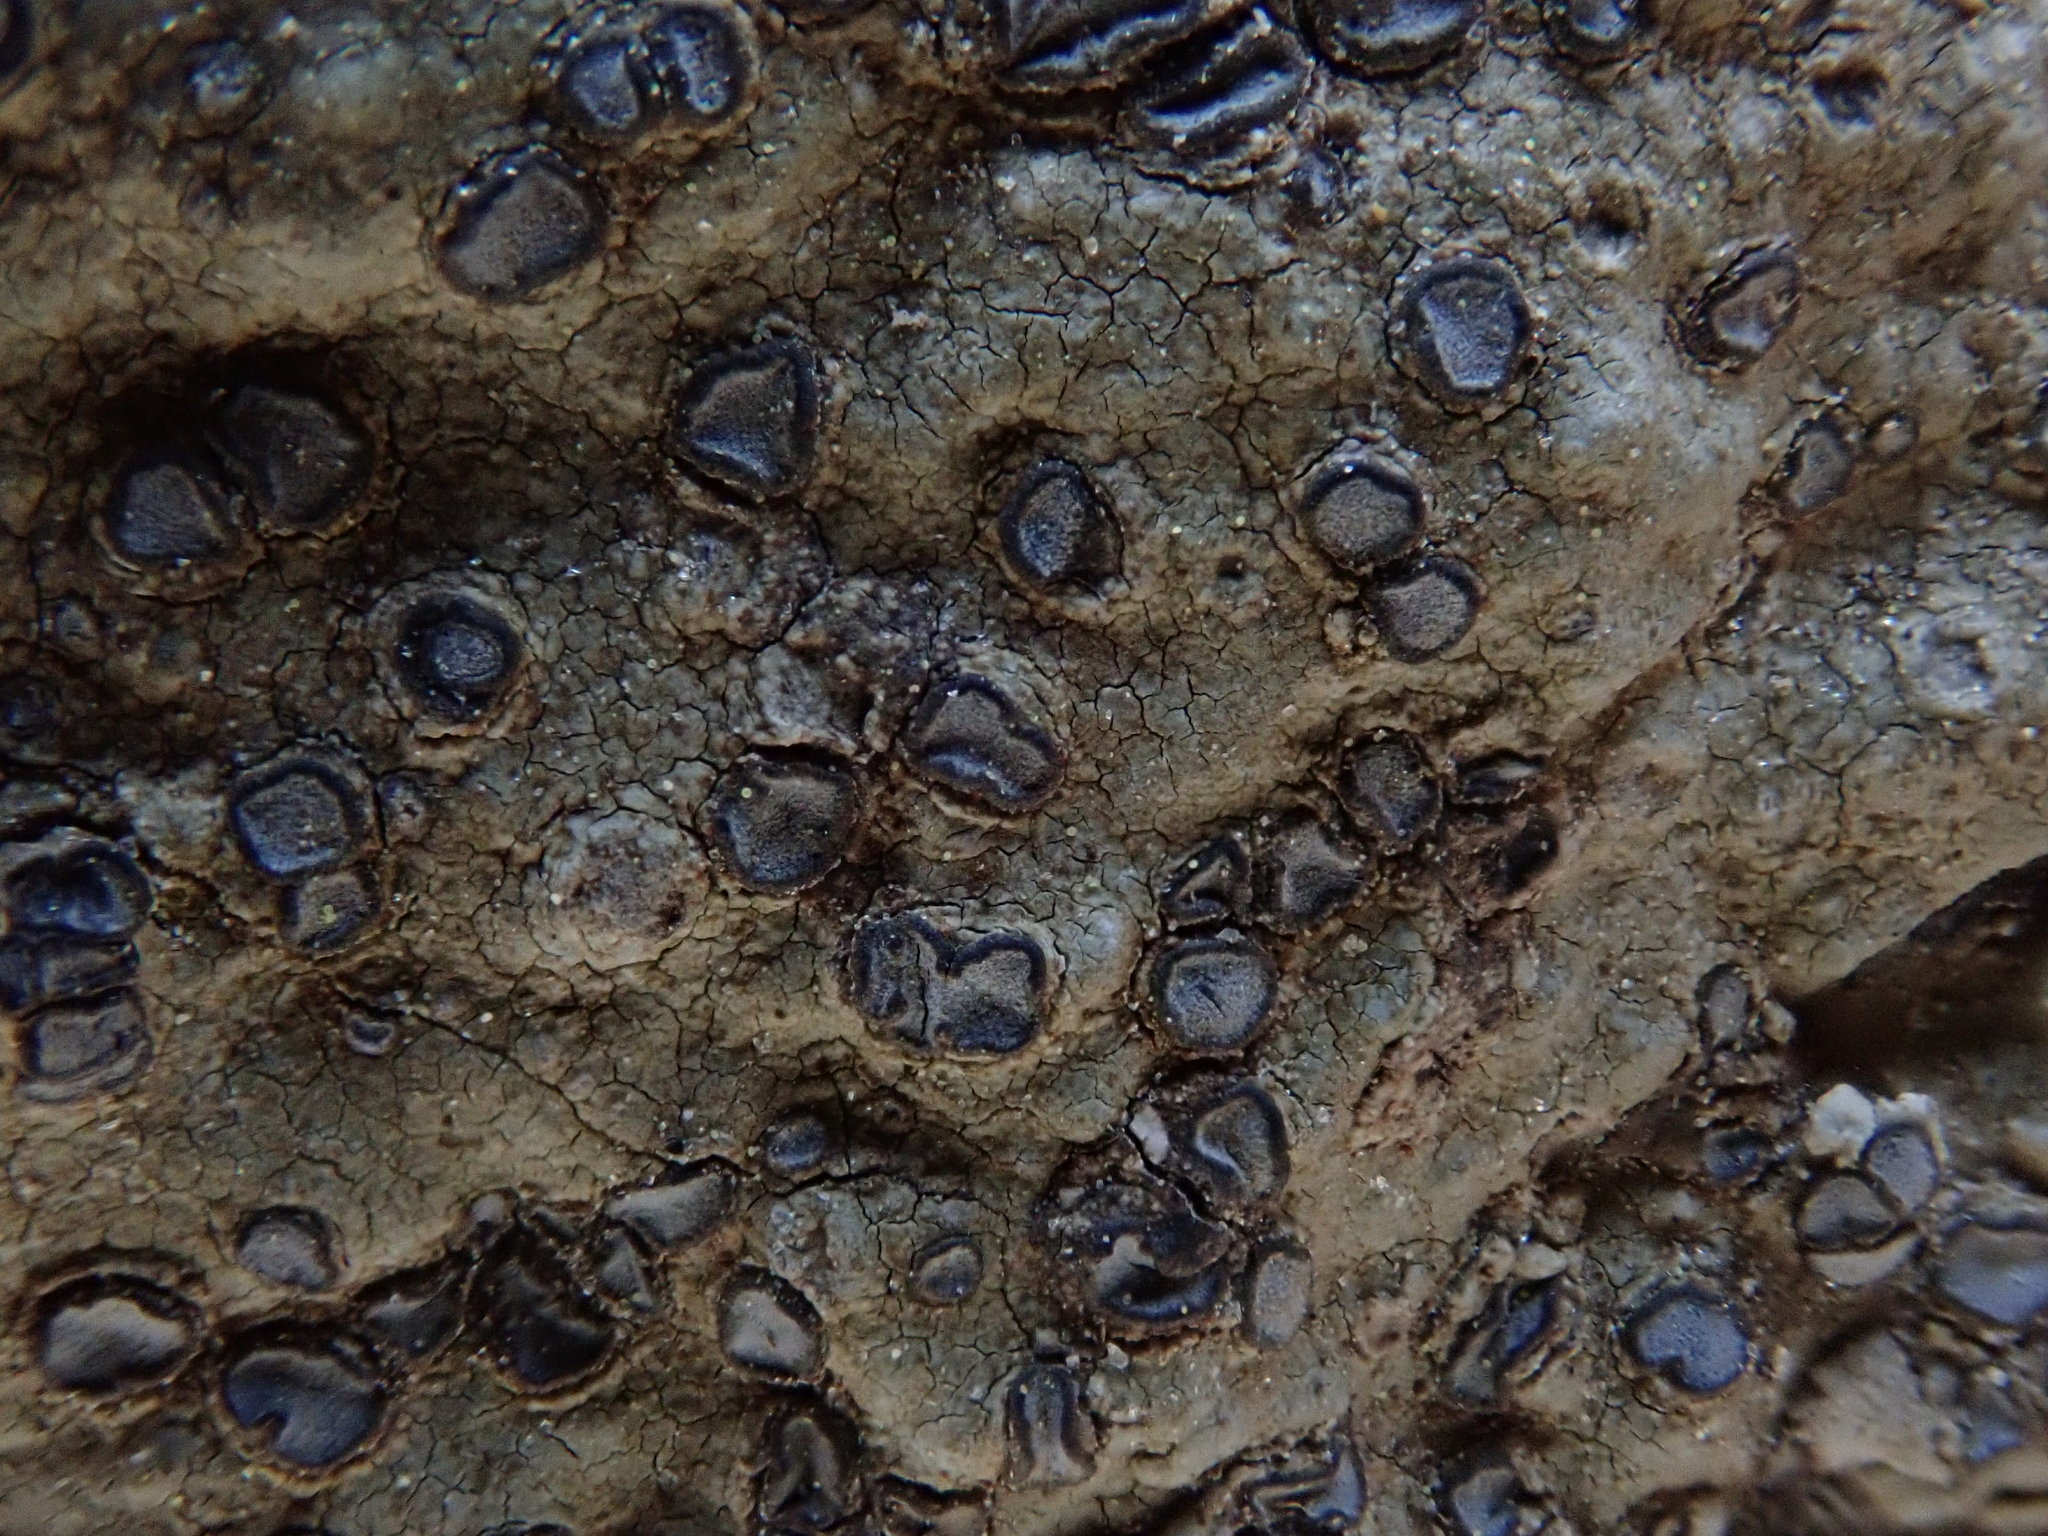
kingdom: Fungi
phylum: Ascomycota
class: Lecanoromycetes
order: Lecideales
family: Lecideaceae
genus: Porpidia
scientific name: Porpidia albocaerulescens
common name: Smokey-eyed boulder lichen
